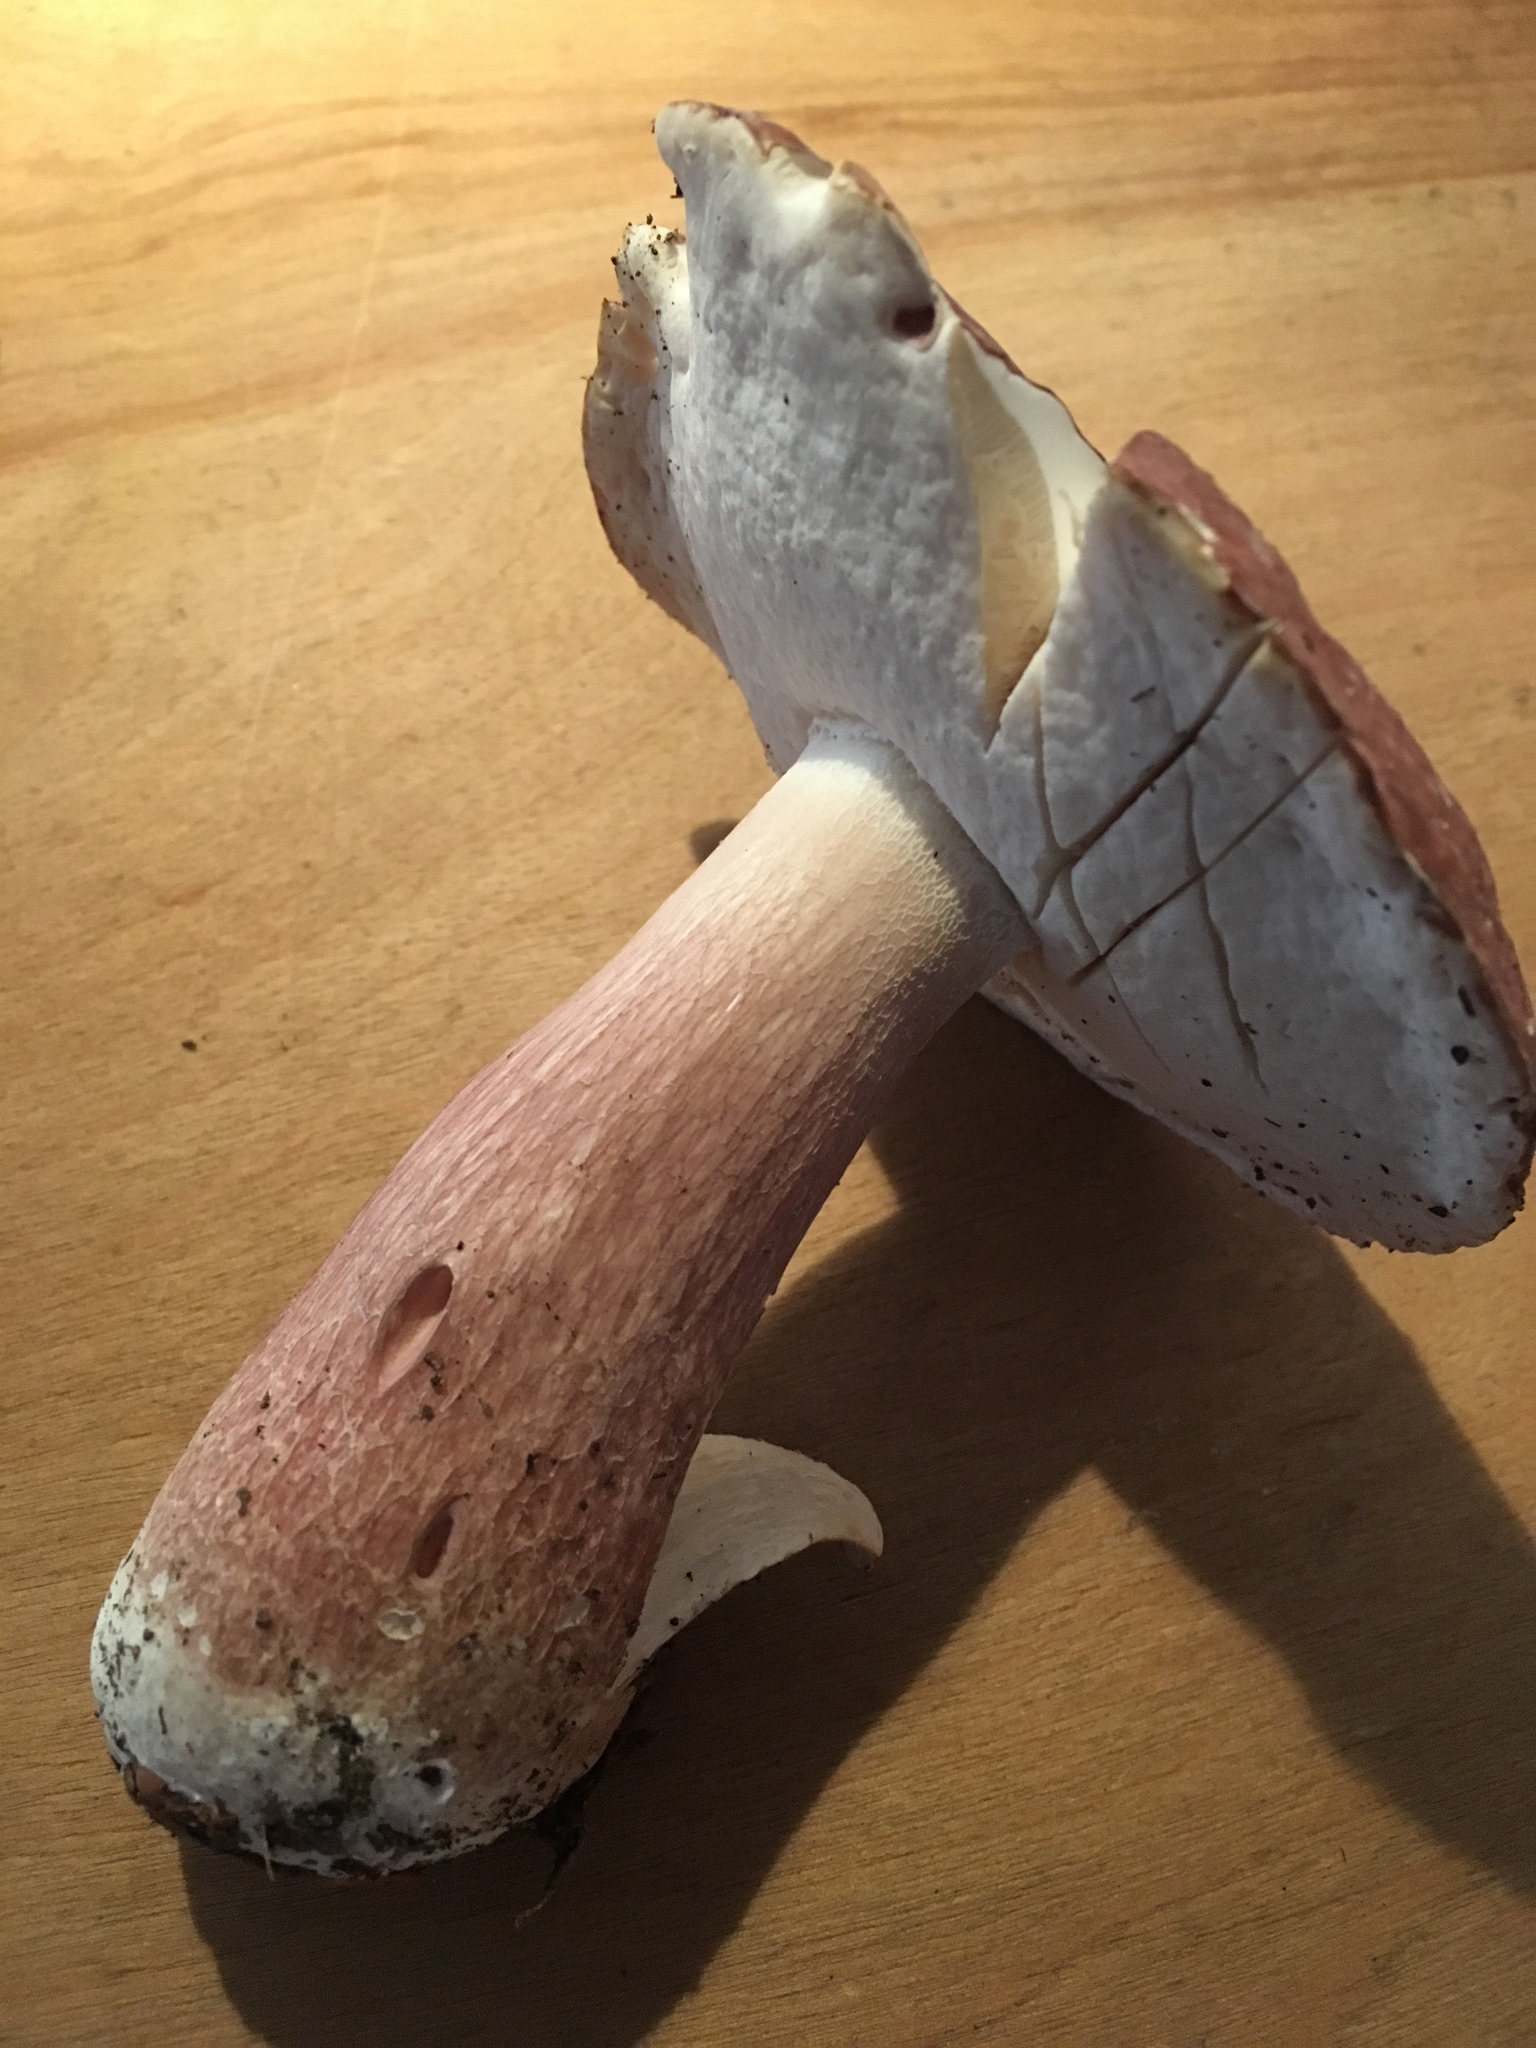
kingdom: Fungi
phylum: Basidiomycota
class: Agaricomycetes
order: Boletales
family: Boletaceae
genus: Xanthoconium
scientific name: Xanthoconium separans
